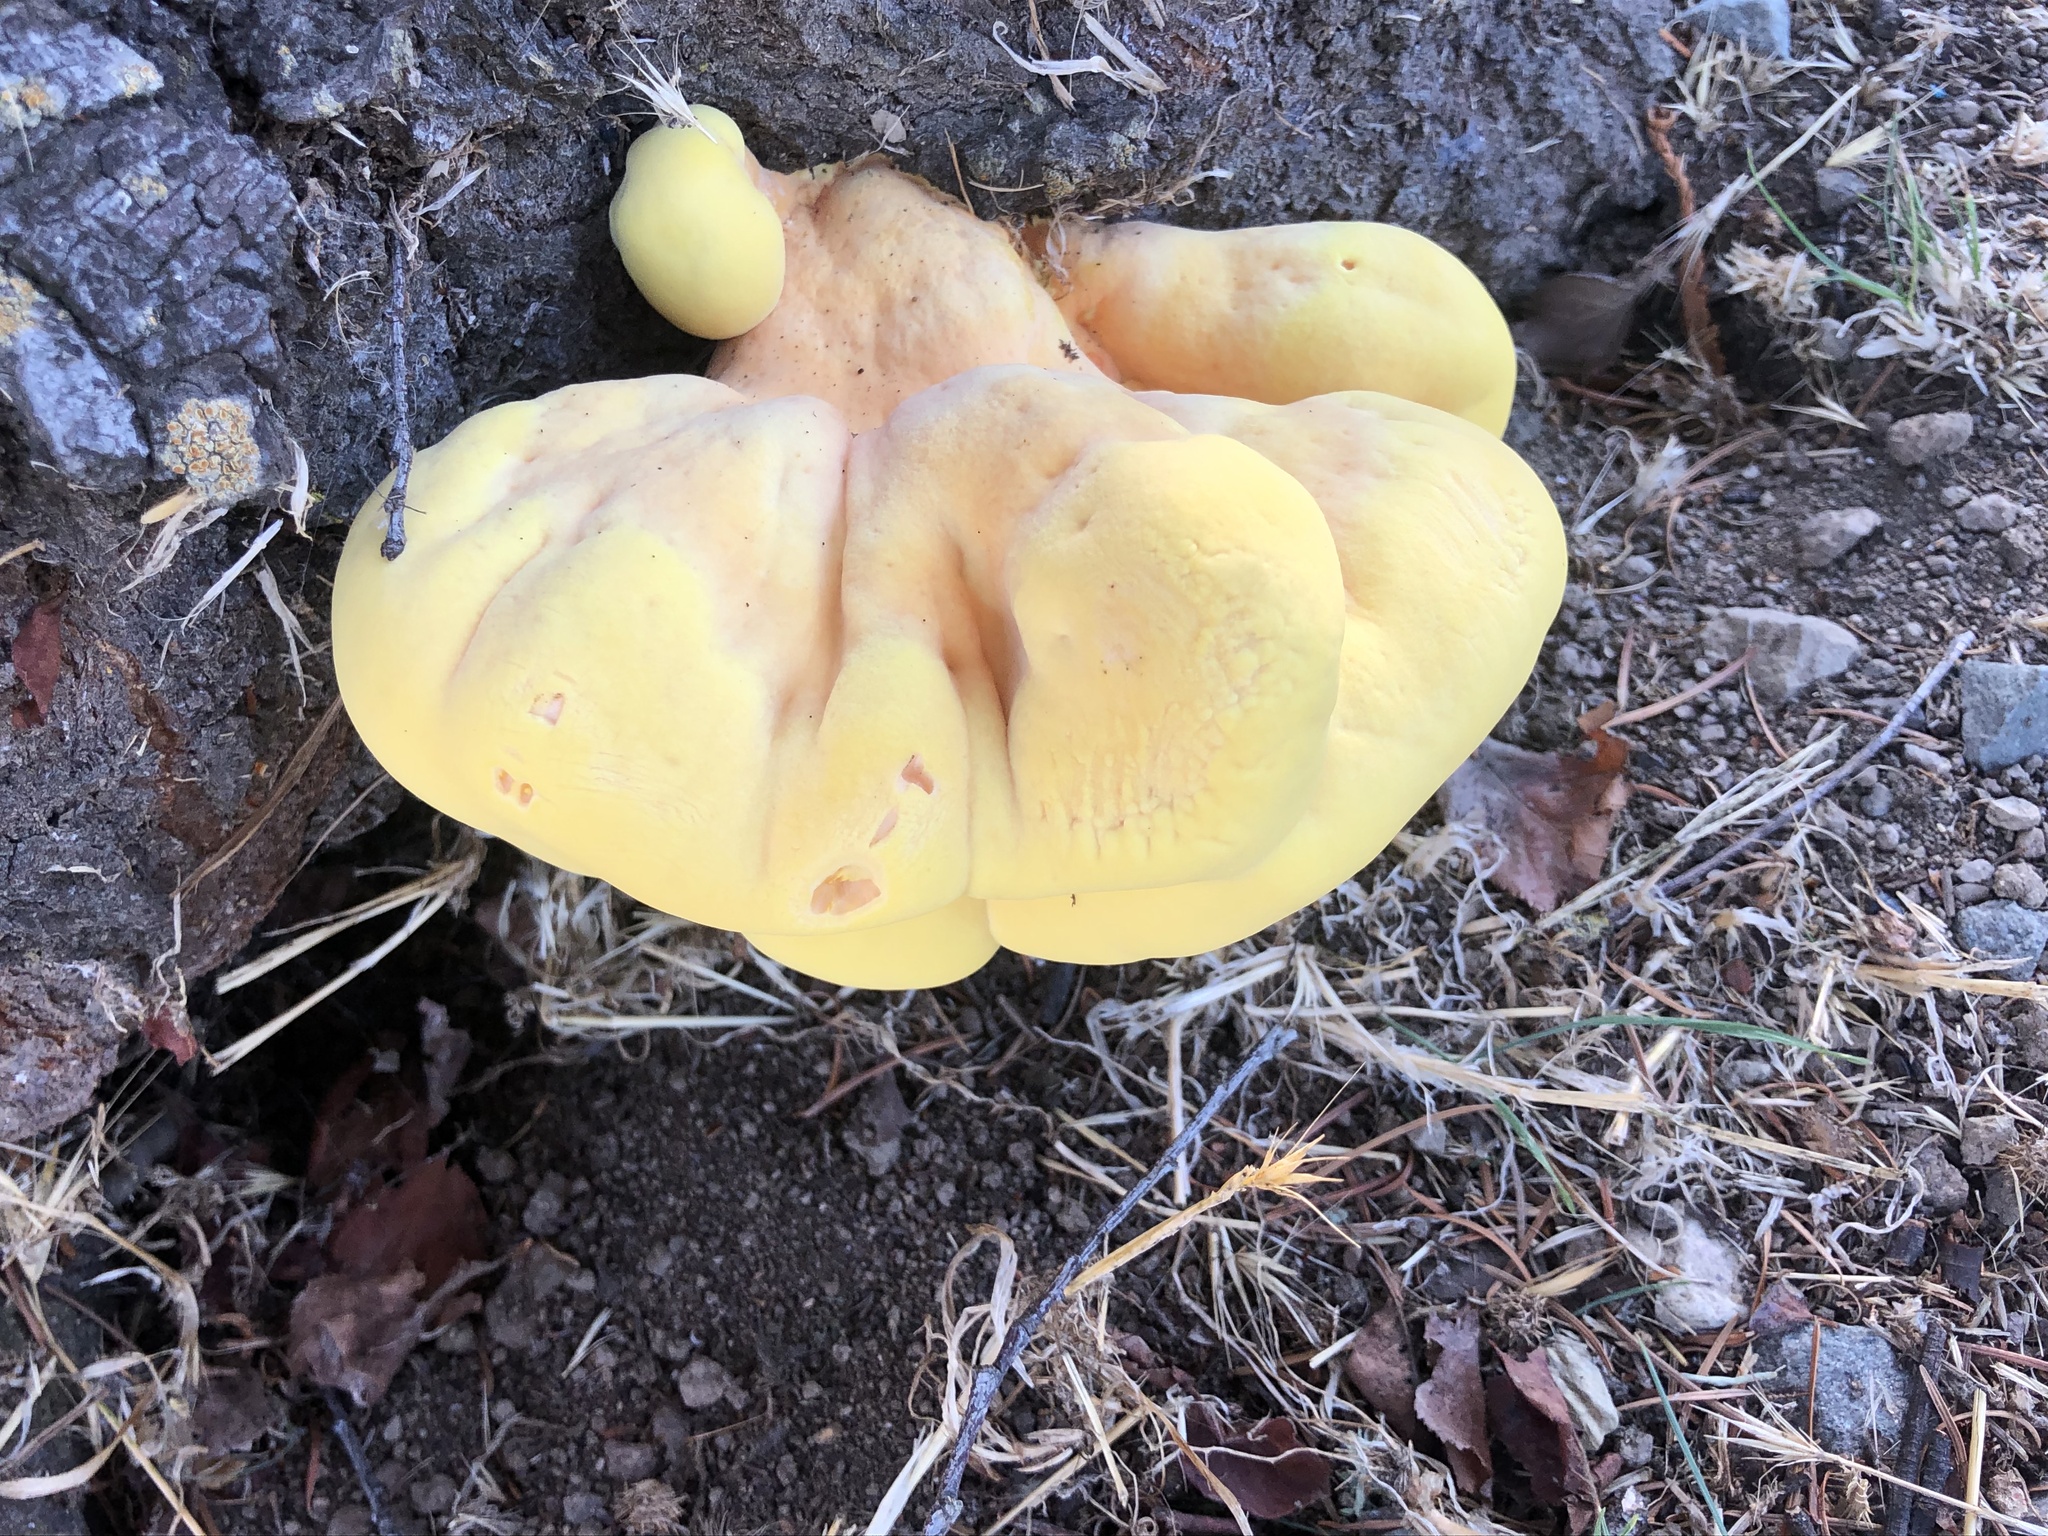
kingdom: Fungi
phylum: Basidiomycota
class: Agaricomycetes
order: Polyporales
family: Laetiporaceae
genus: Laetiporus
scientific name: Laetiporus gilbertsonii
